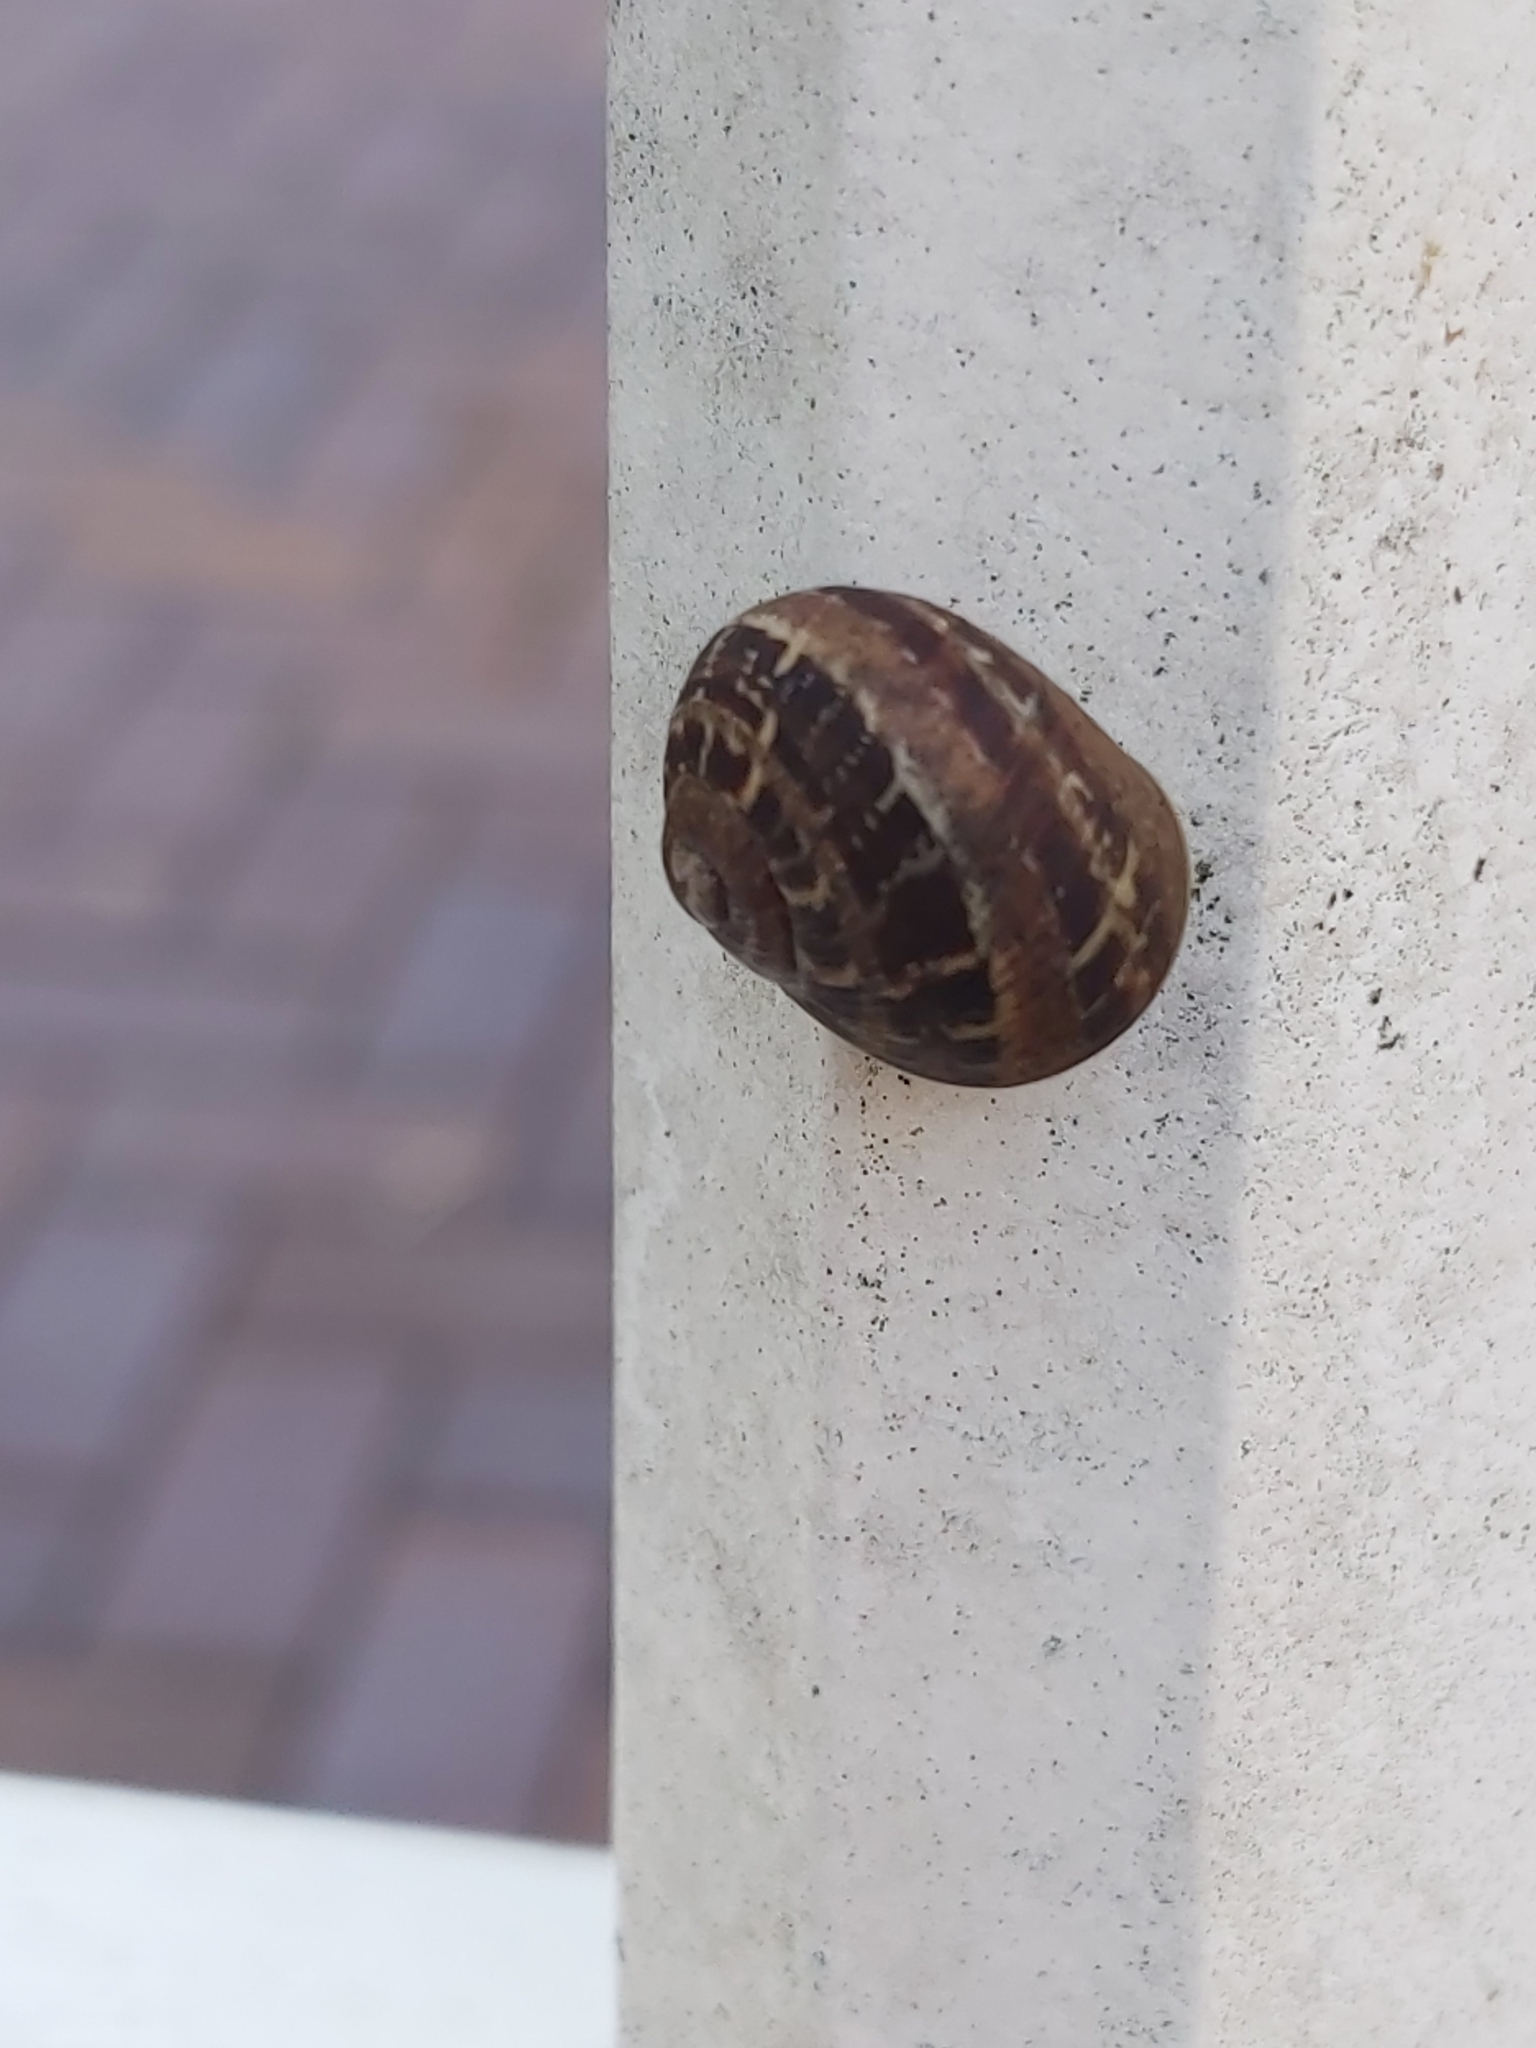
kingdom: Animalia
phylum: Mollusca
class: Gastropoda
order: Stylommatophora
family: Helicidae
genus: Cornu
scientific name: Cornu aspersum
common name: Brown garden snail
